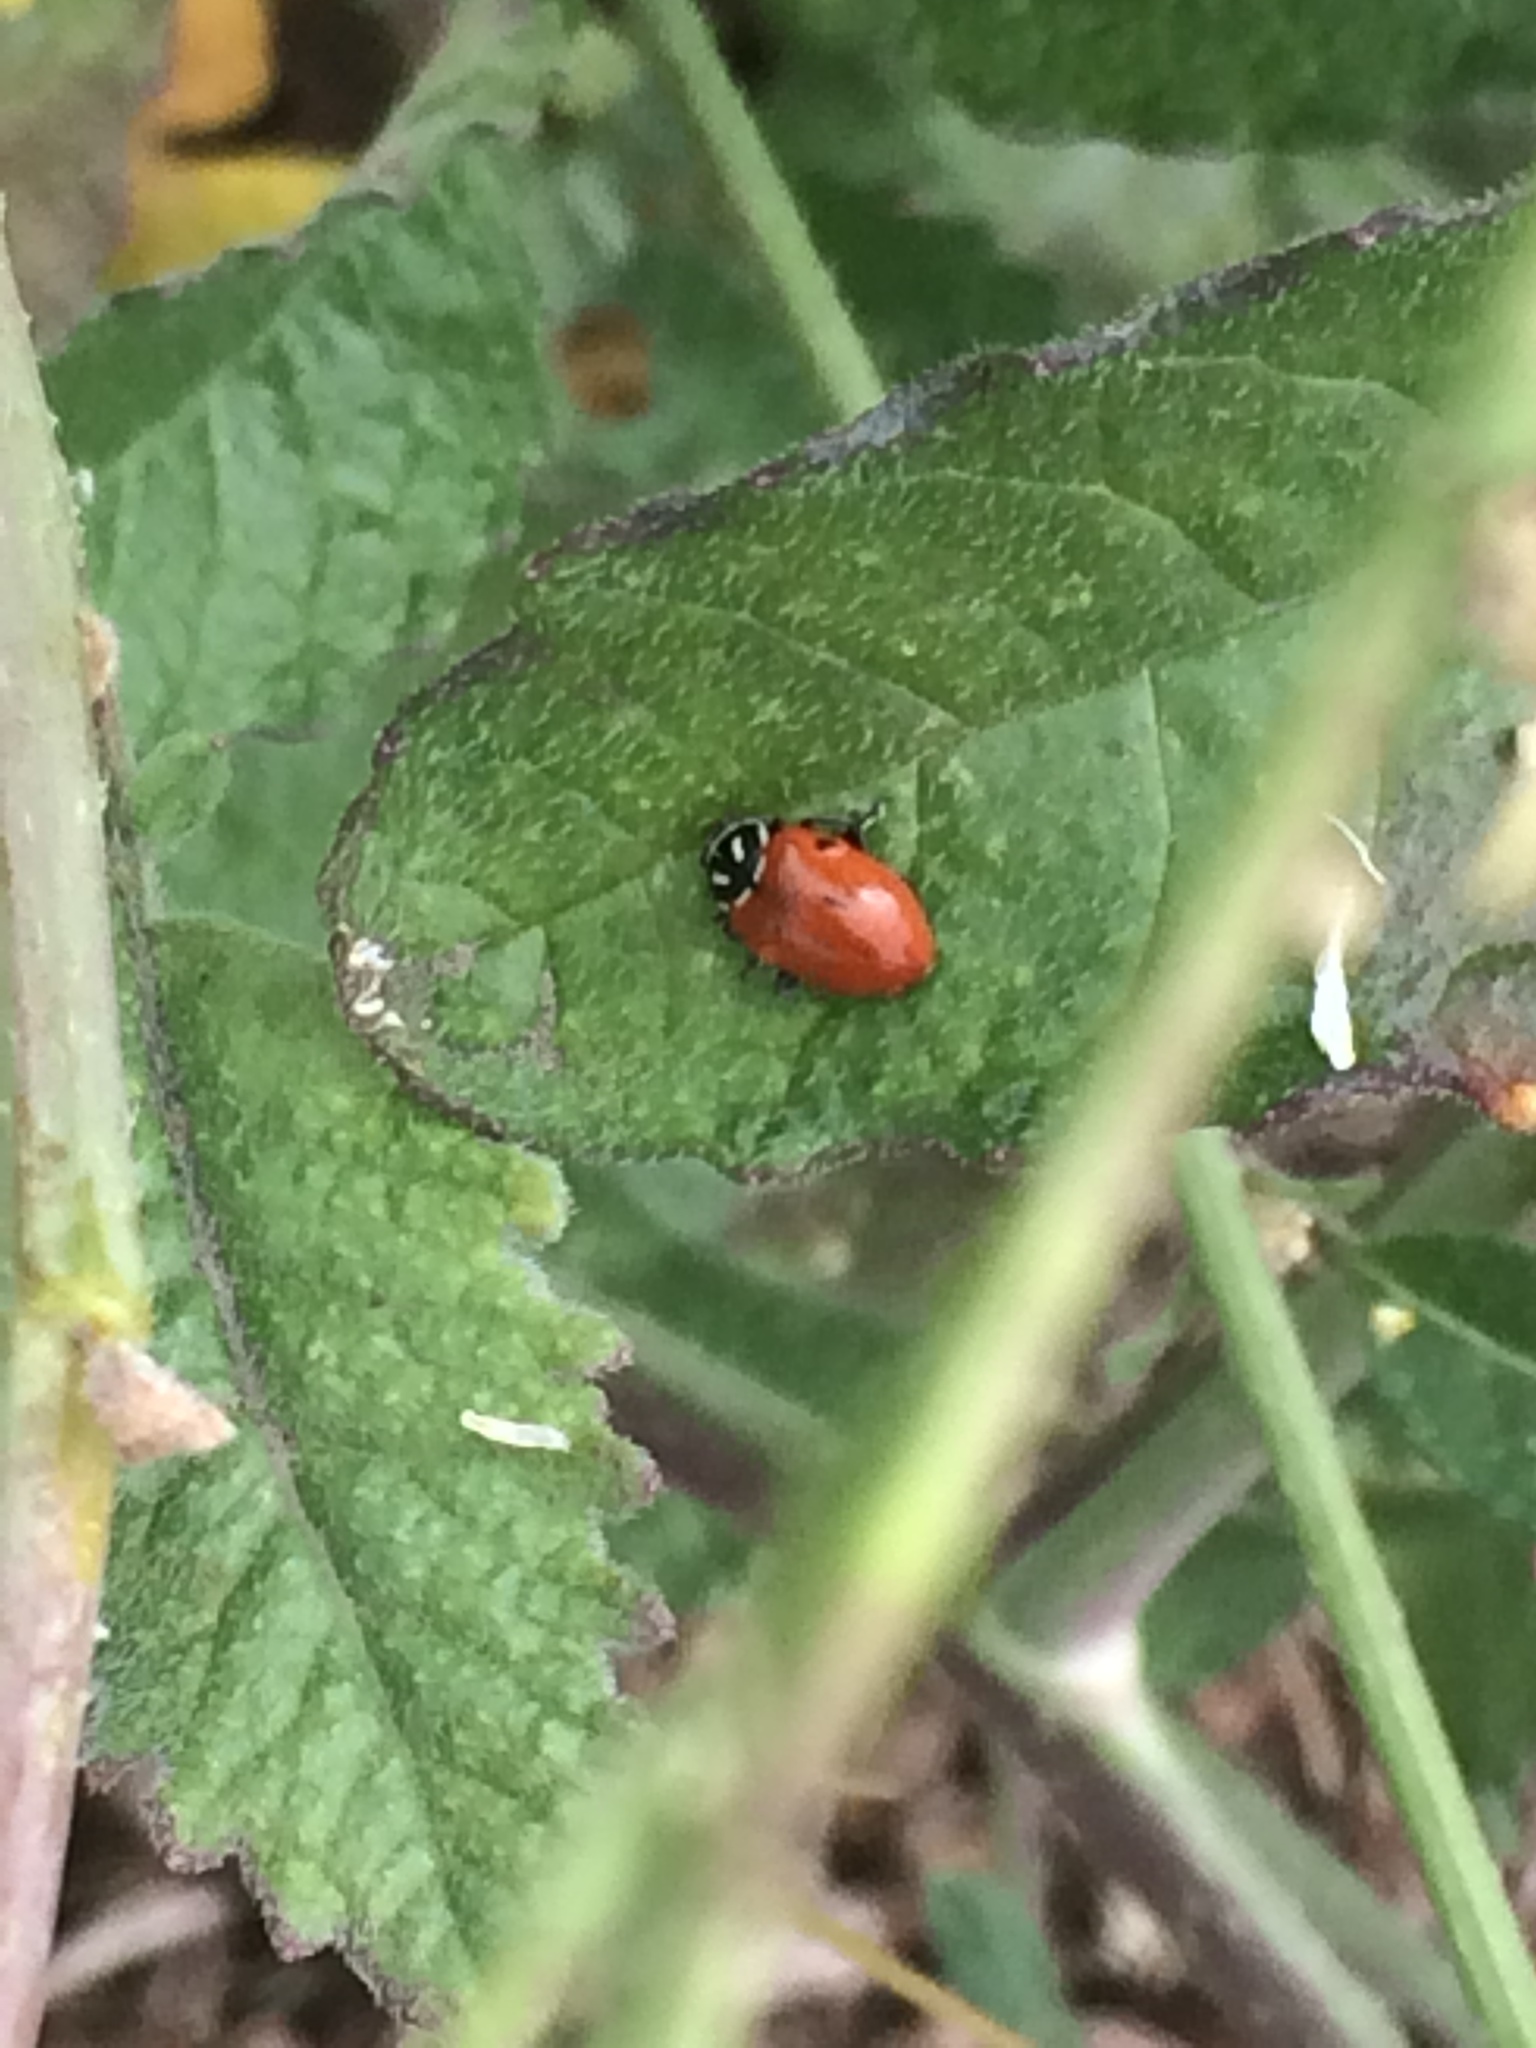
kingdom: Animalia
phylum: Arthropoda
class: Insecta
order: Coleoptera
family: Coccinellidae
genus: Hippodamia
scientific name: Hippodamia convergens
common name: Convergent lady beetle
